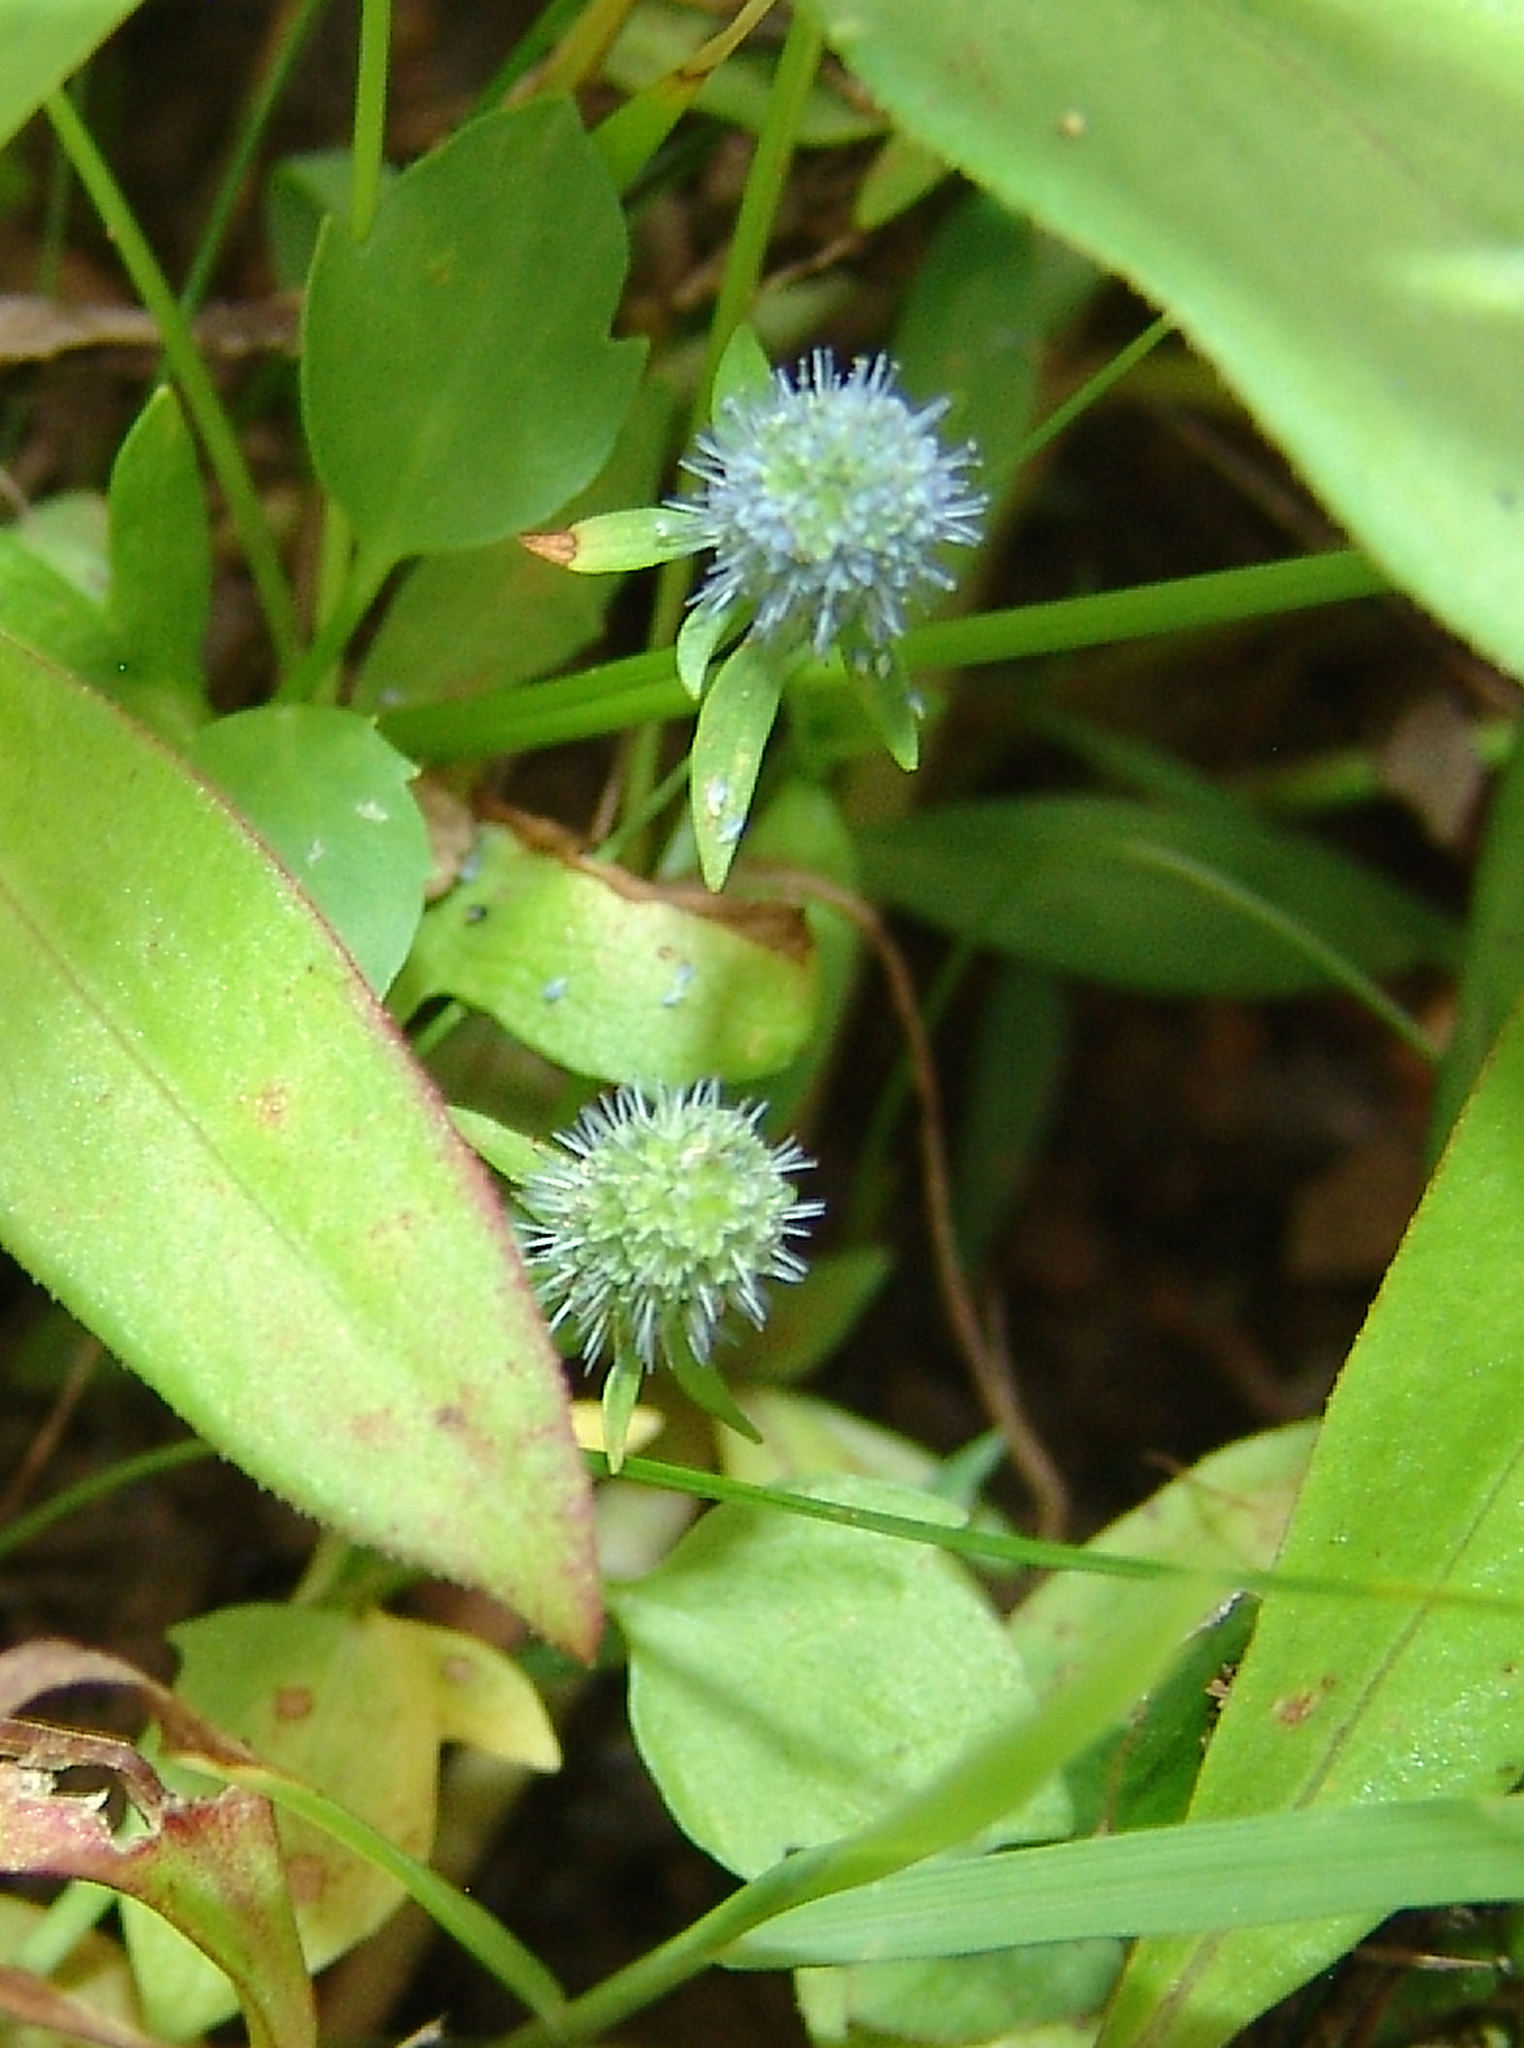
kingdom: Plantae
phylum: Tracheophyta
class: Magnoliopsida
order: Apiales
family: Apiaceae
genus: Eryngium
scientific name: Eryngium prostratum
